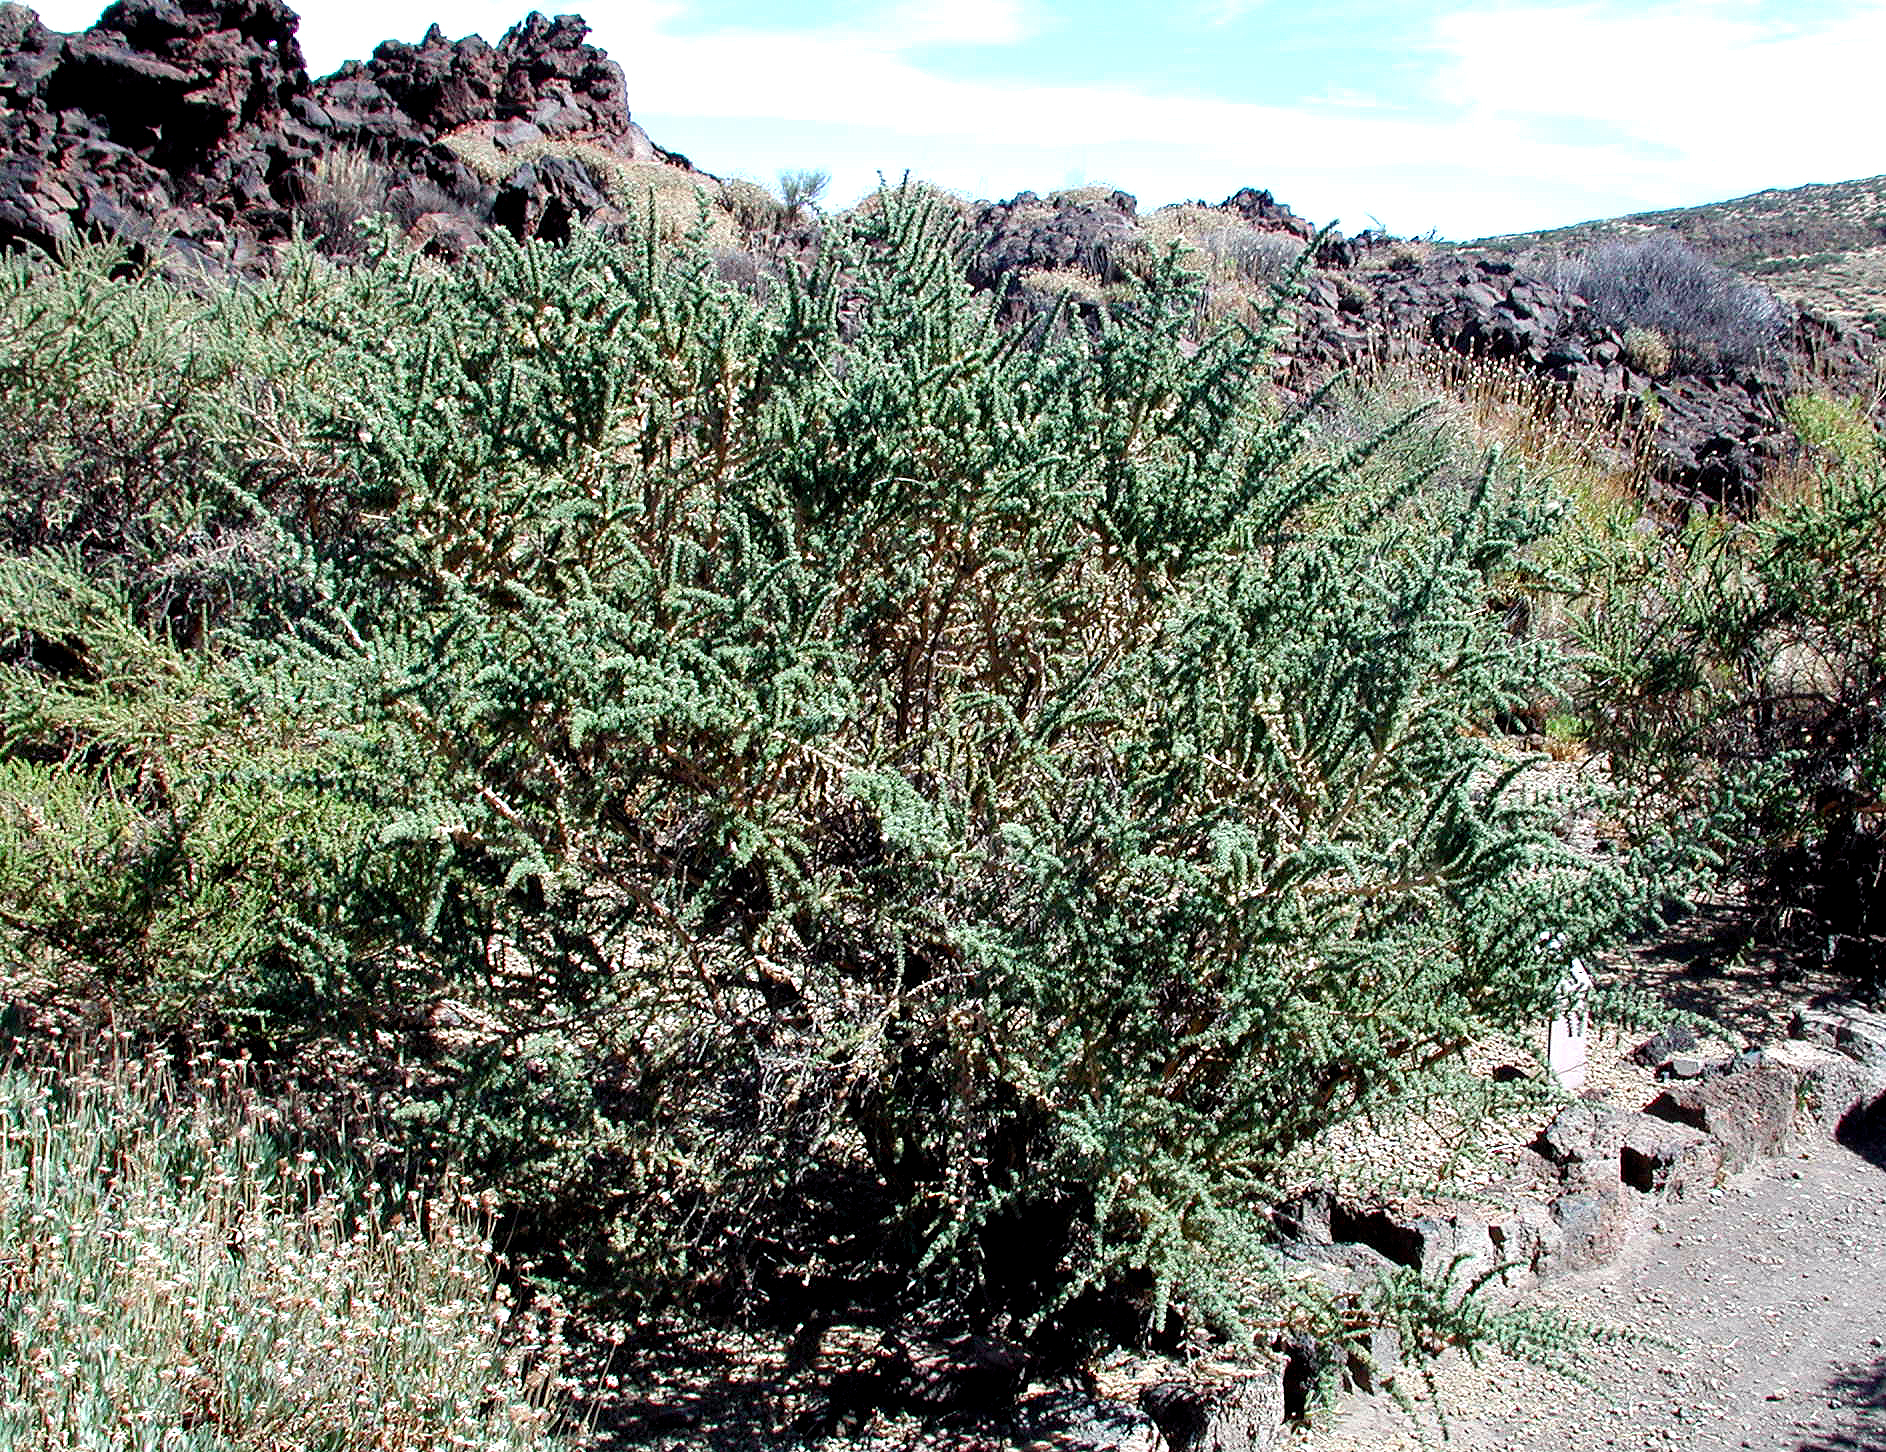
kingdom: Plantae
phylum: Tracheophyta
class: Magnoliopsida
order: Fabales
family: Fabaceae
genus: Adenocarpus
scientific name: Adenocarpus viscosus
